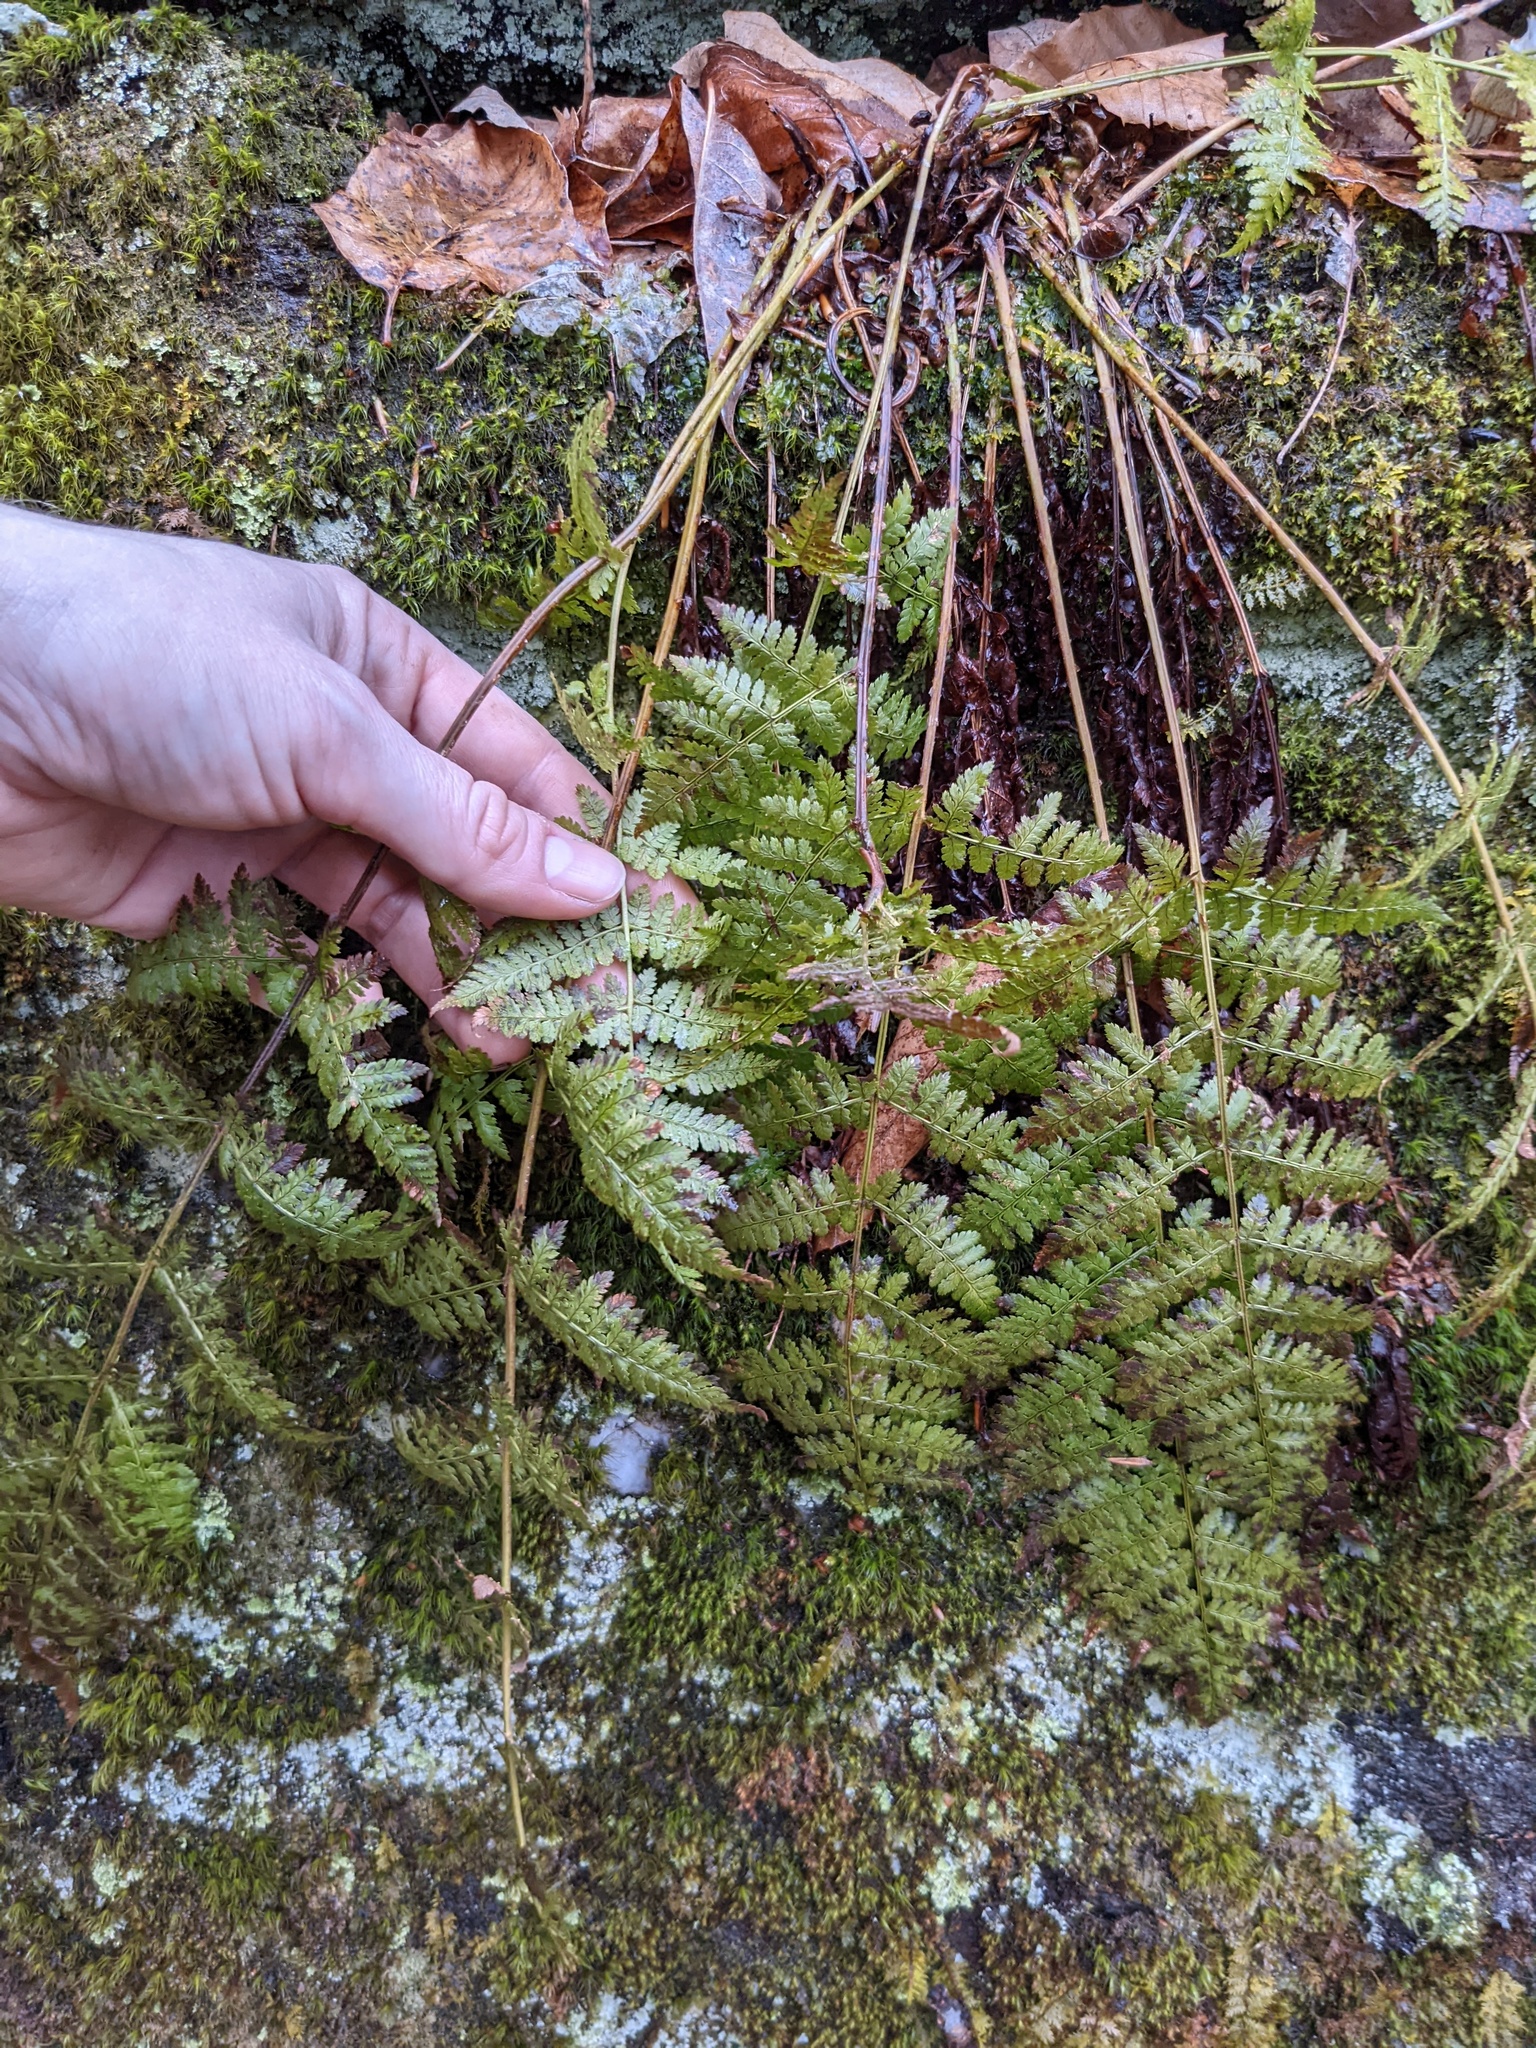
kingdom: Plantae
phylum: Tracheophyta
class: Polypodiopsida
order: Polypodiales
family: Dryopteridaceae
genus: Dryopteris
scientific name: Dryopteris intermedia
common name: Evergreen wood fern
